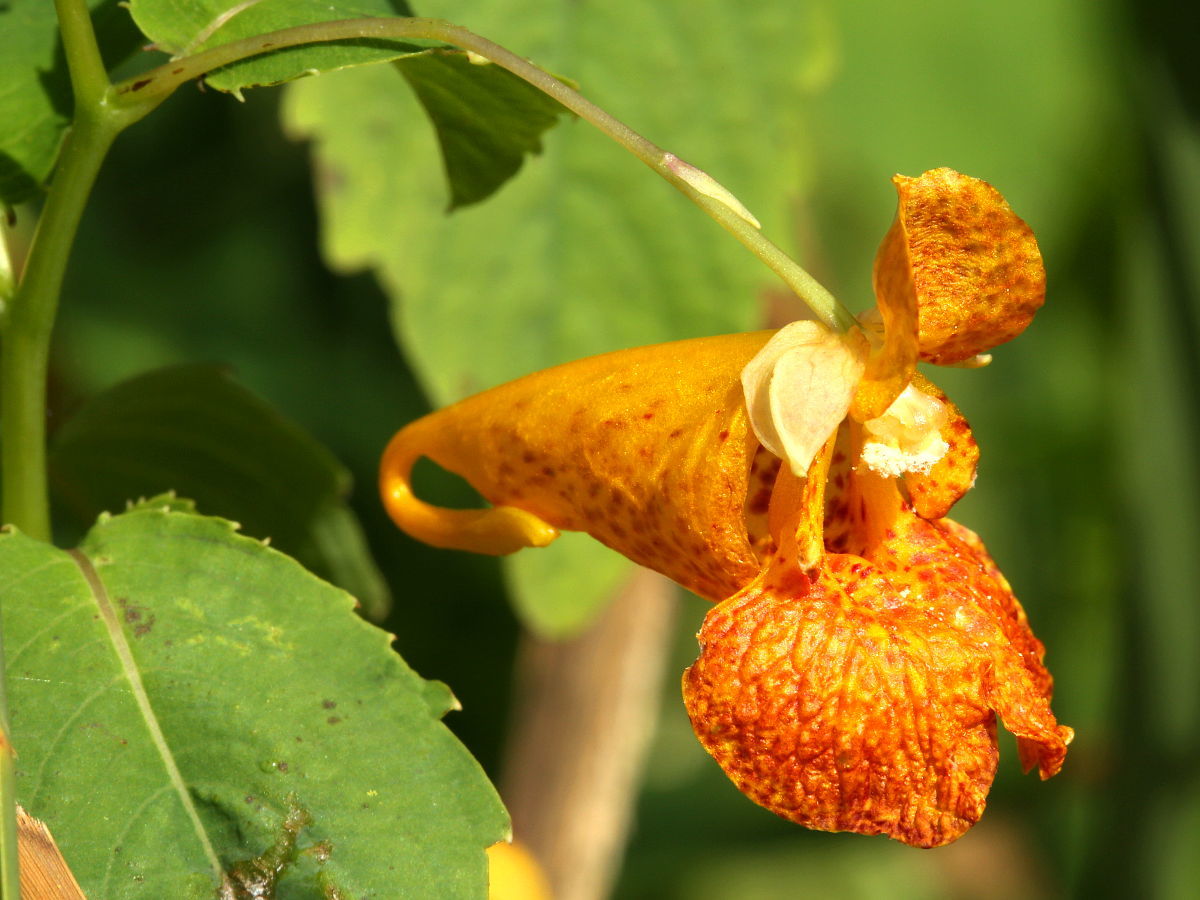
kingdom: Plantae
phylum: Tracheophyta
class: Magnoliopsida
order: Ericales
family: Balsaminaceae
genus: Impatiens
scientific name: Impatiens capensis
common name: Orange balsam
